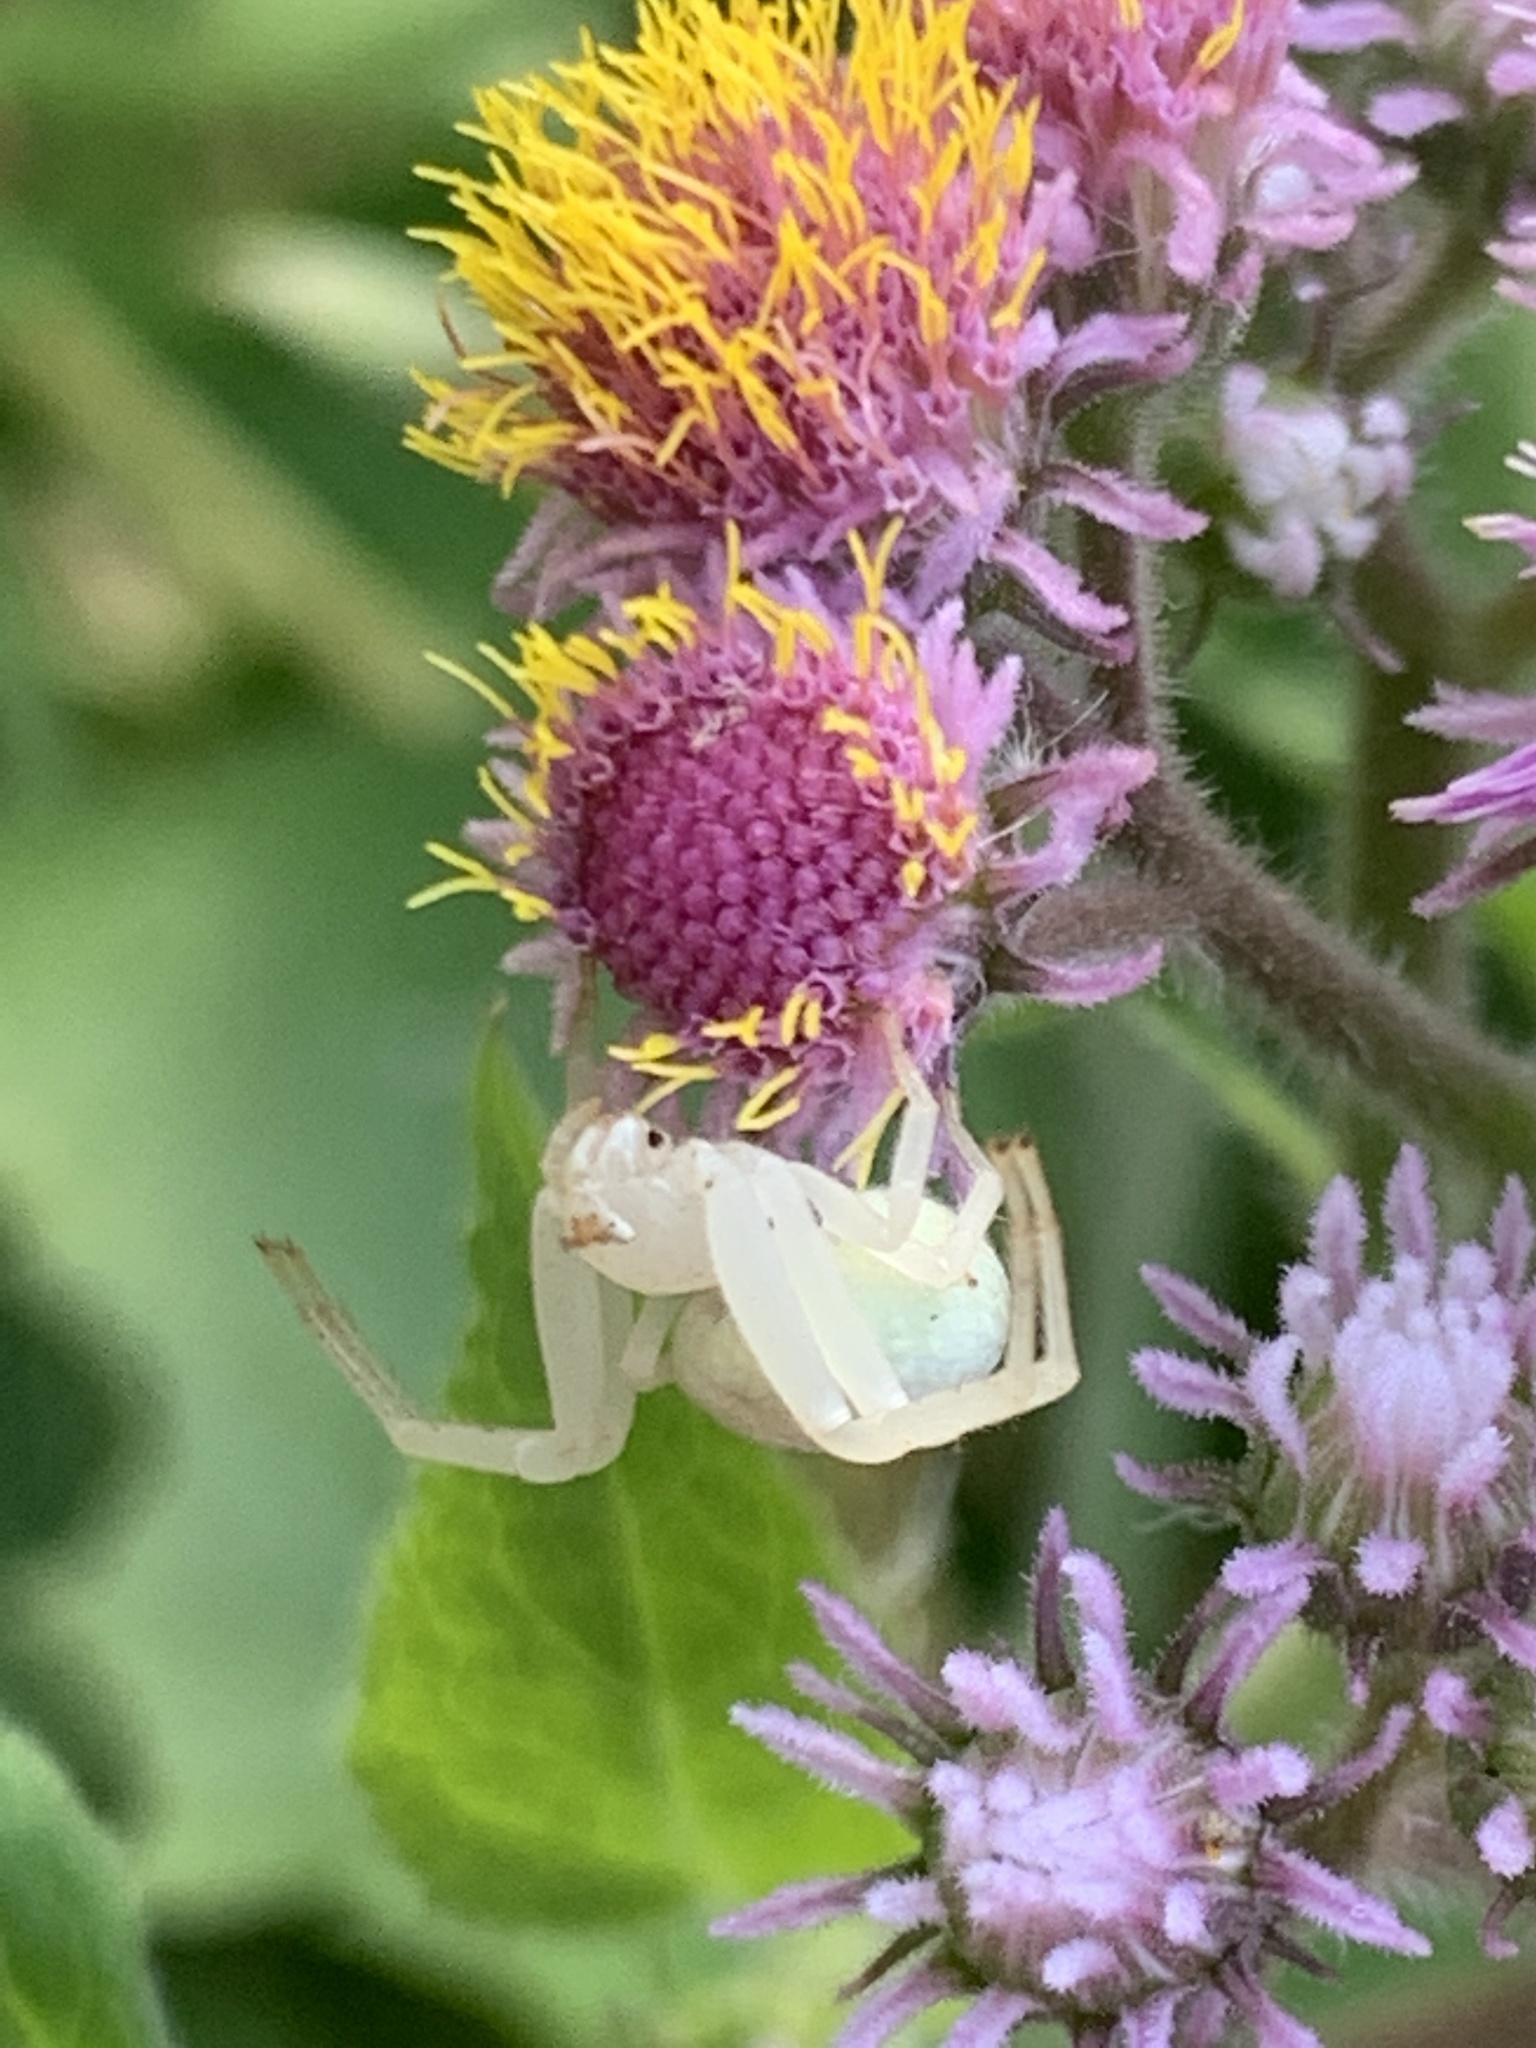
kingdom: Animalia
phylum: Arthropoda
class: Arachnida
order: Araneae
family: Thomisidae
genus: Misumenops
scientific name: Misumenops
